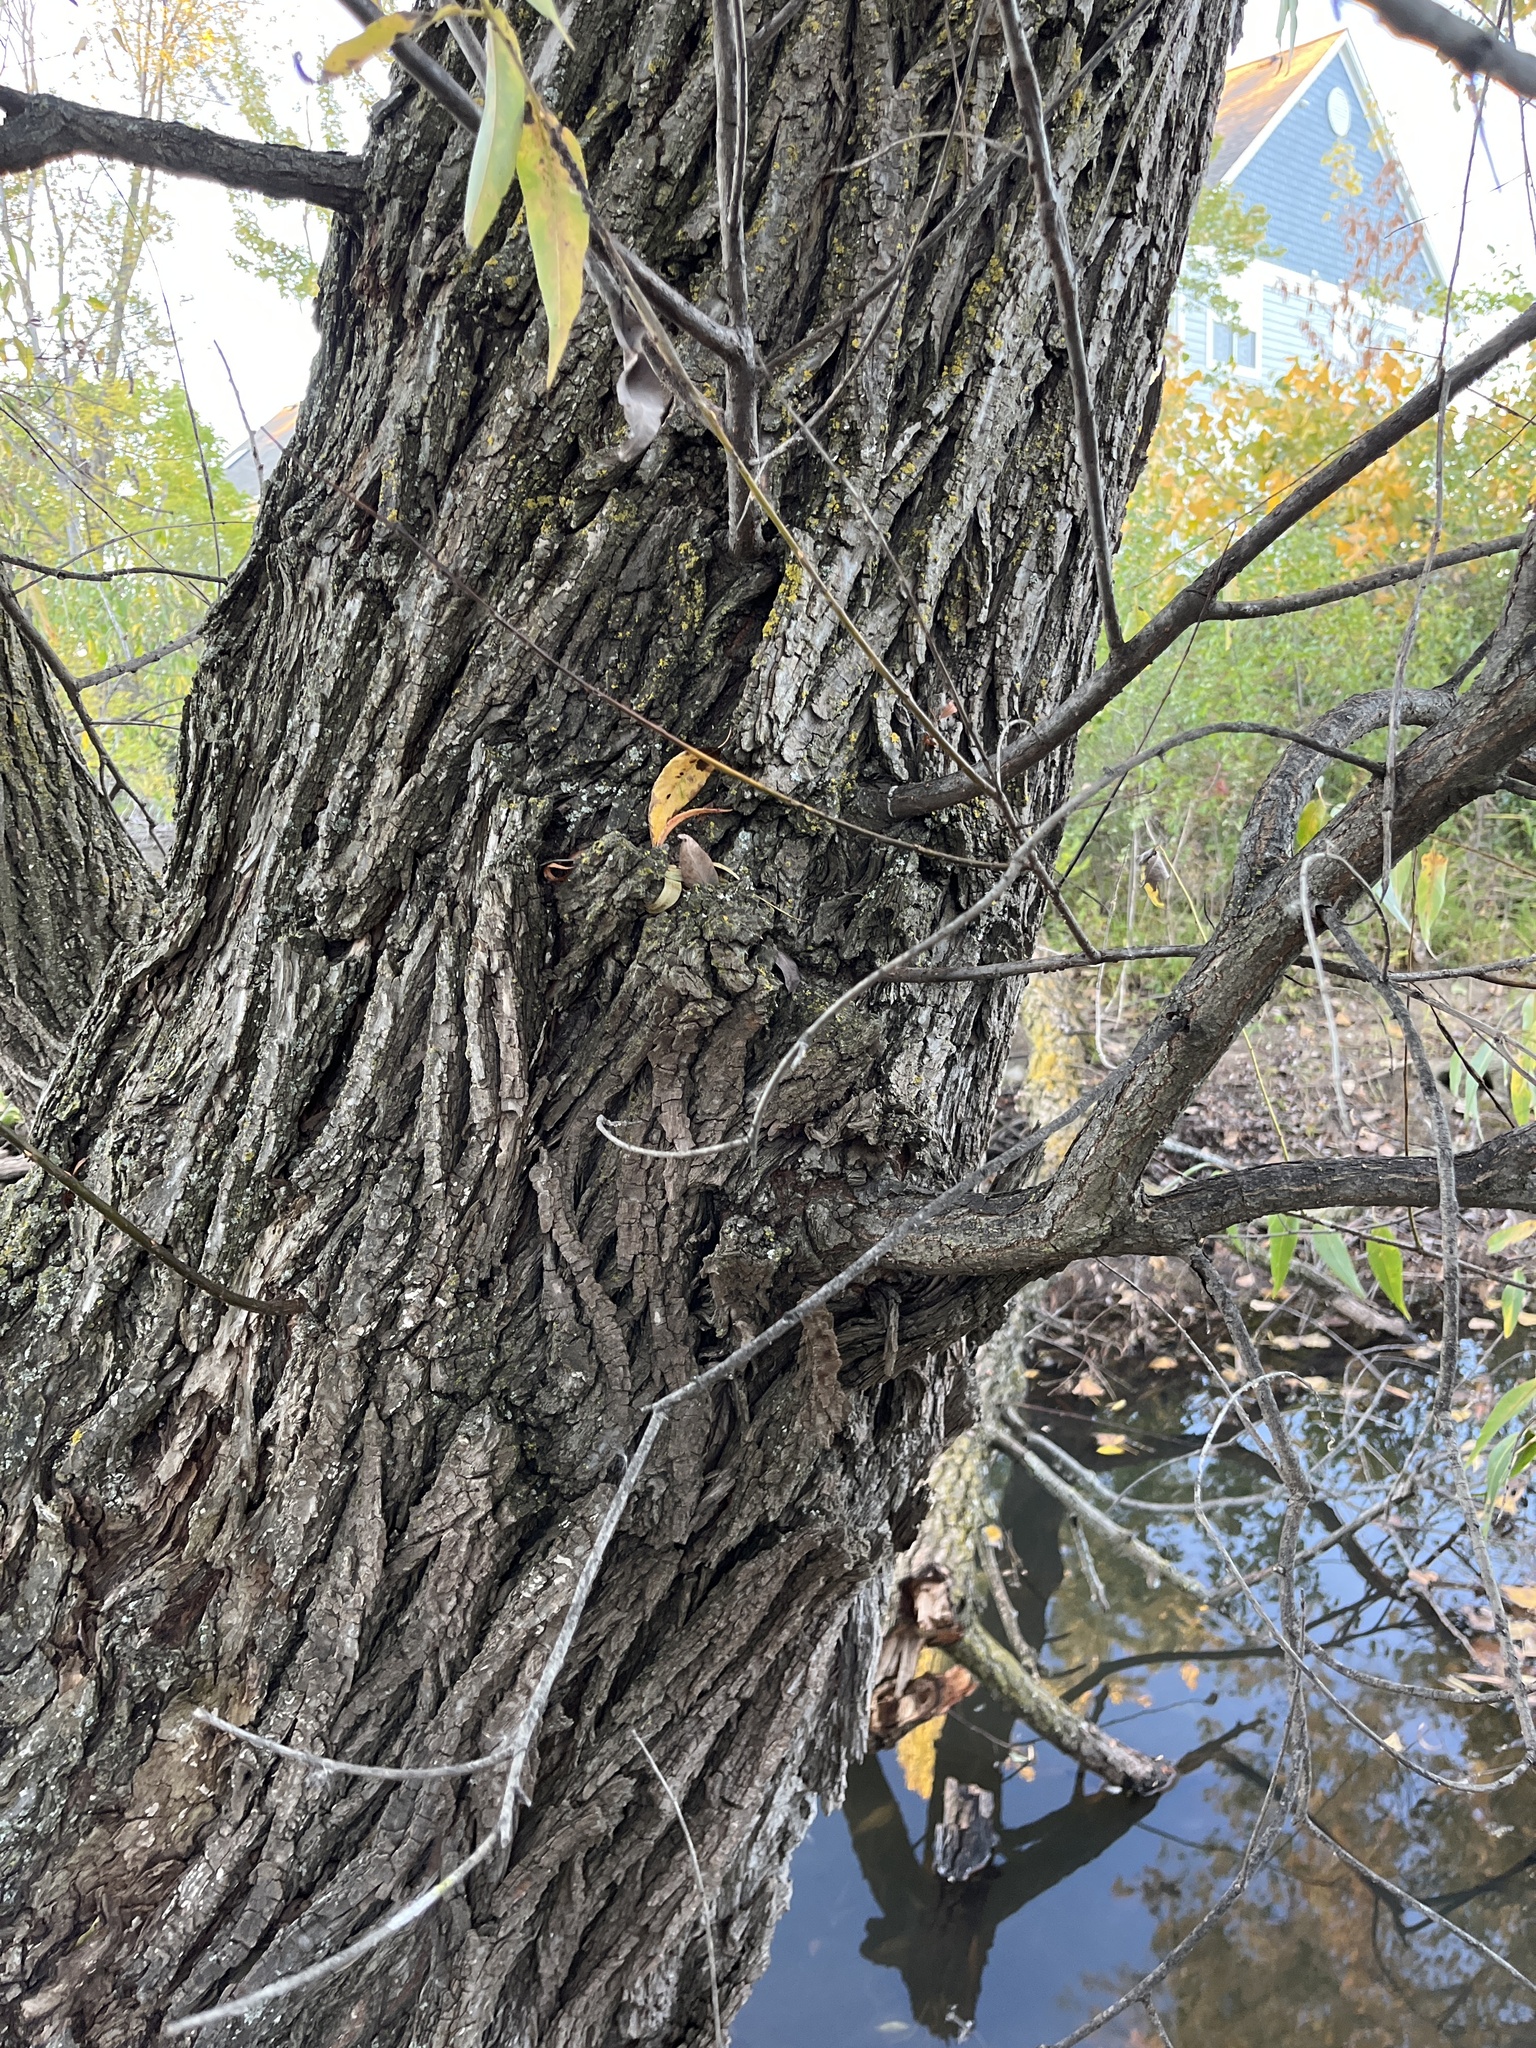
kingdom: Plantae
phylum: Tracheophyta
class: Magnoliopsida
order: Malpighiales
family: Salicaceae
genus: Salix
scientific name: Salix amygdaloides
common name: Peach leaf willow
